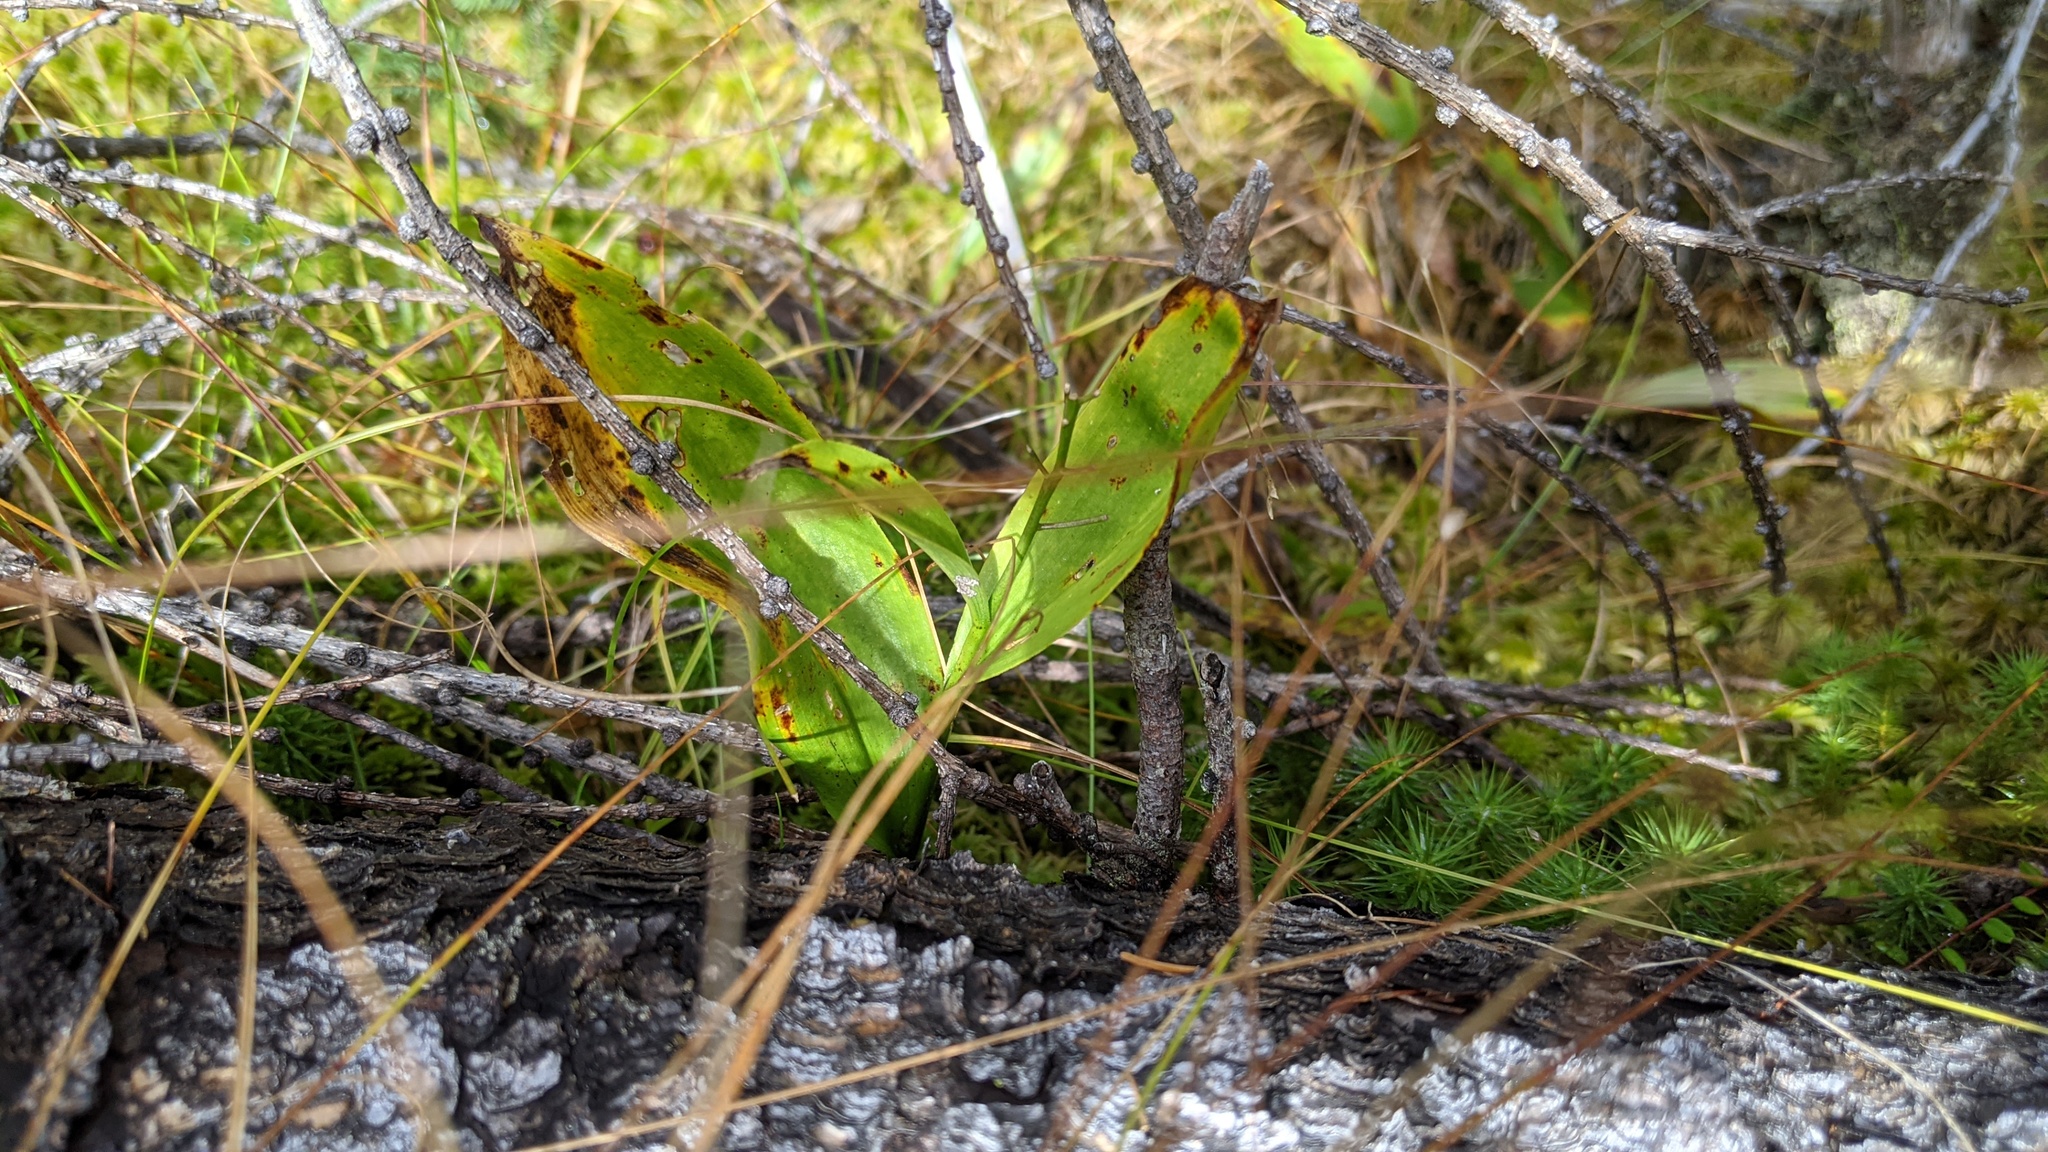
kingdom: Plantae
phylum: Tracheophyta
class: Liliopsida
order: Asparagales
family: Asparagaceae
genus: Maianthemum
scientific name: Maianthemum trifolium
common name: Swamp false solomon's seal
